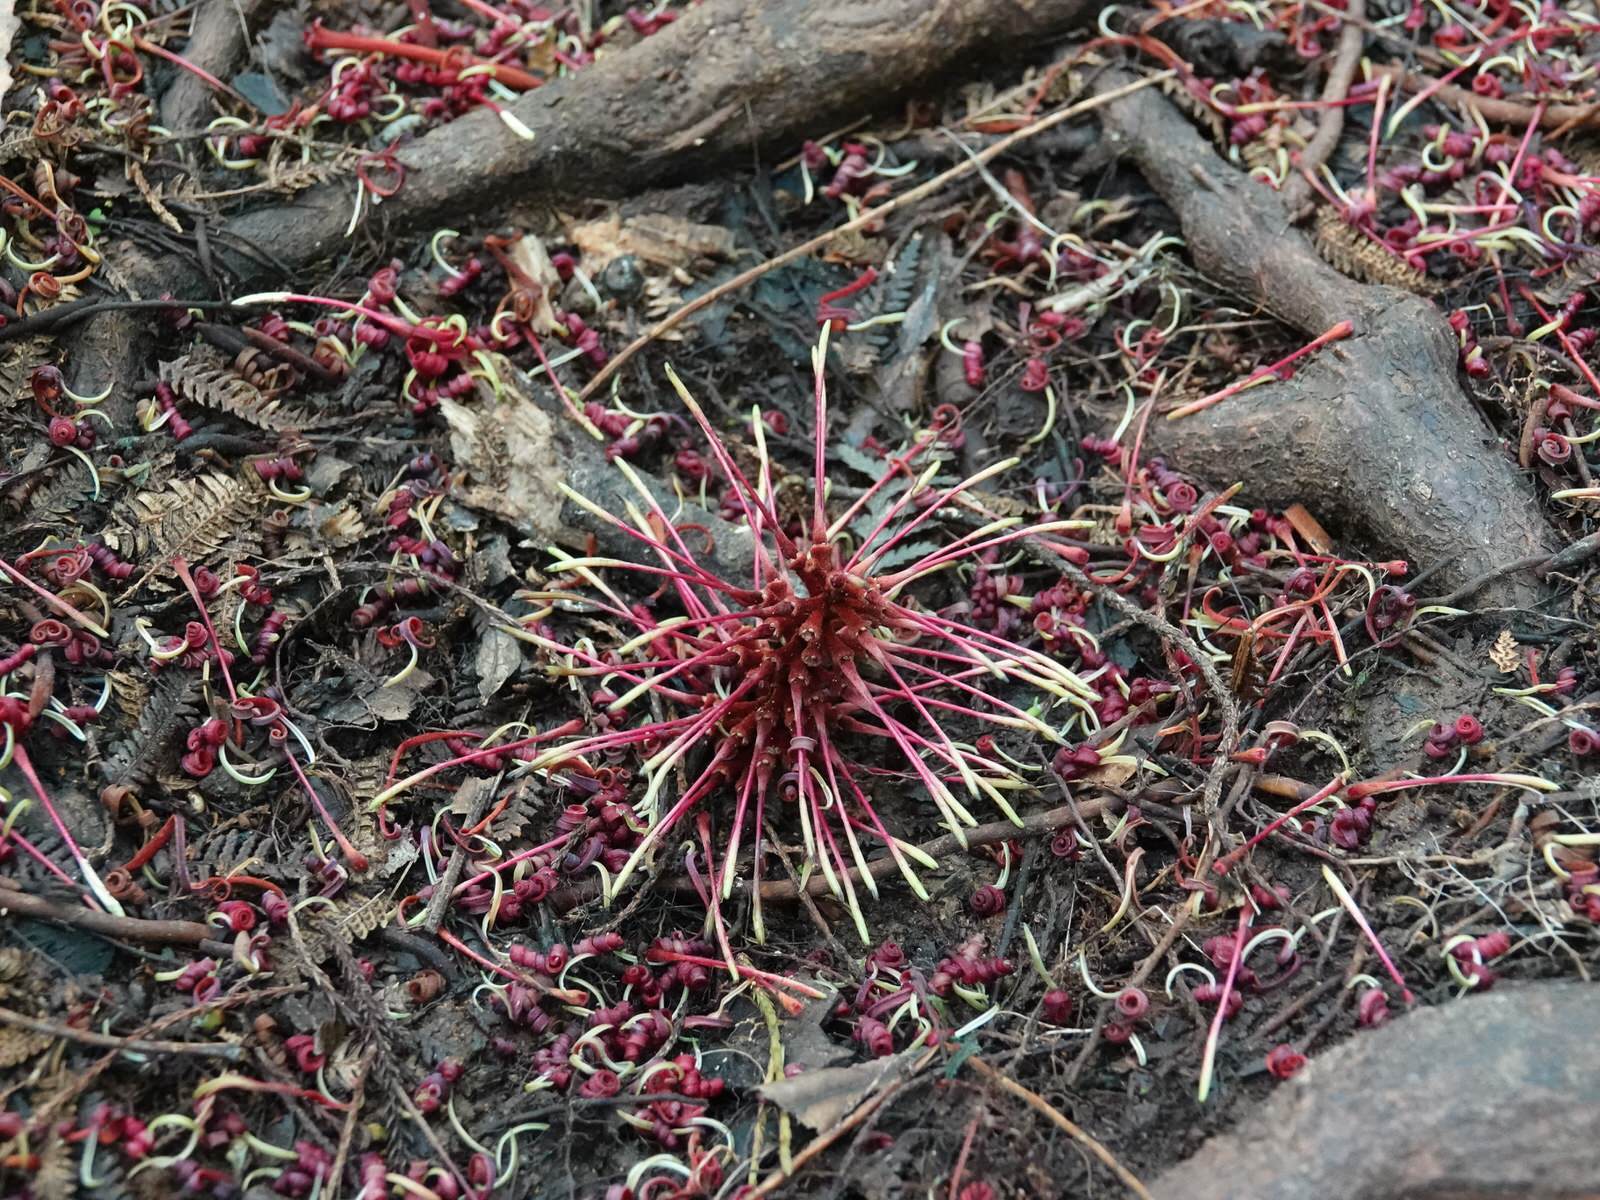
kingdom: Plantae
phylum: Tracheophyta
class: Magnoliopsida
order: Proteales
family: Proteaceae
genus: Knightia
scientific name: Knightia excelsa
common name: New zealand-honeysuckle
